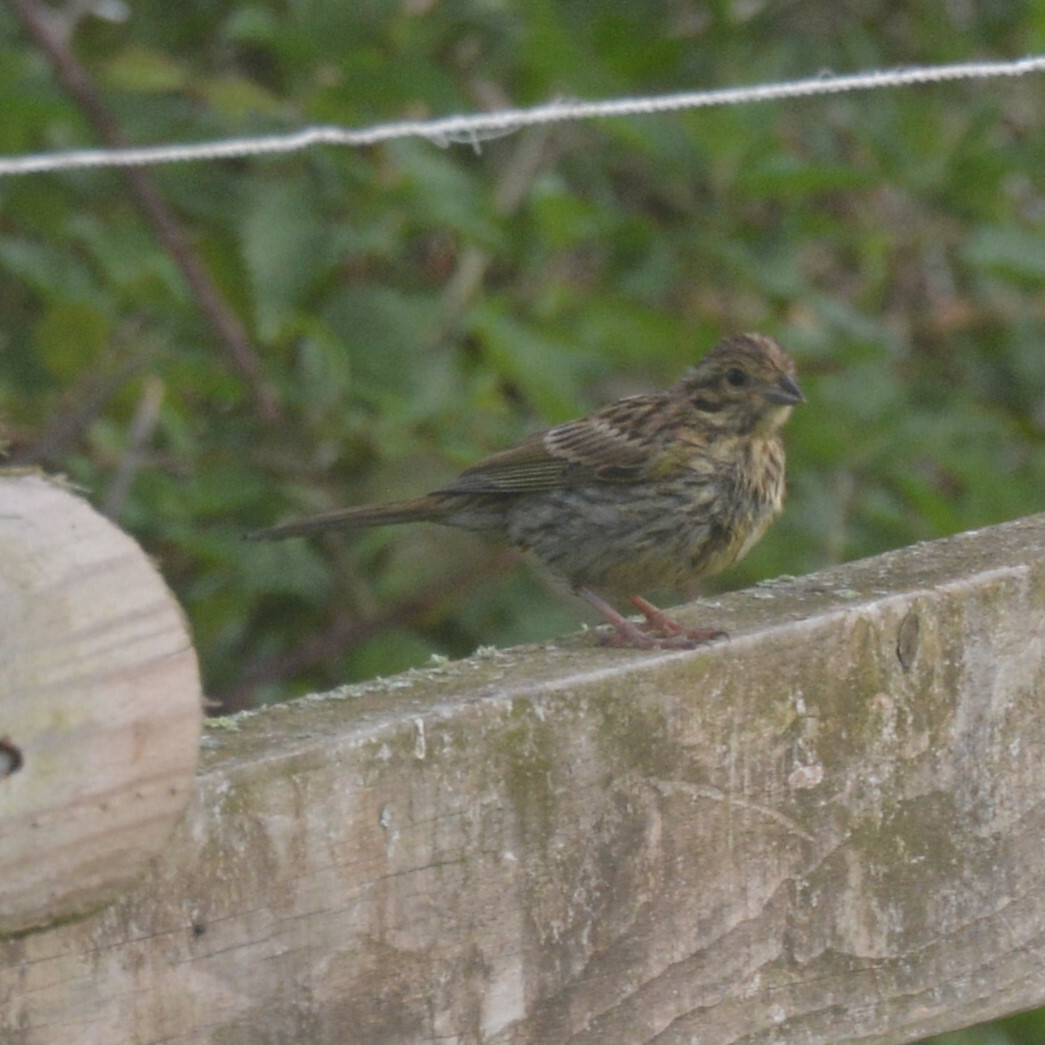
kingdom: Animalia
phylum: Chordata
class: Aves
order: Passeriformes
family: Emberizidae
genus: Emberiza
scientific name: Emberiza cirlus
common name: Cirl bunting
